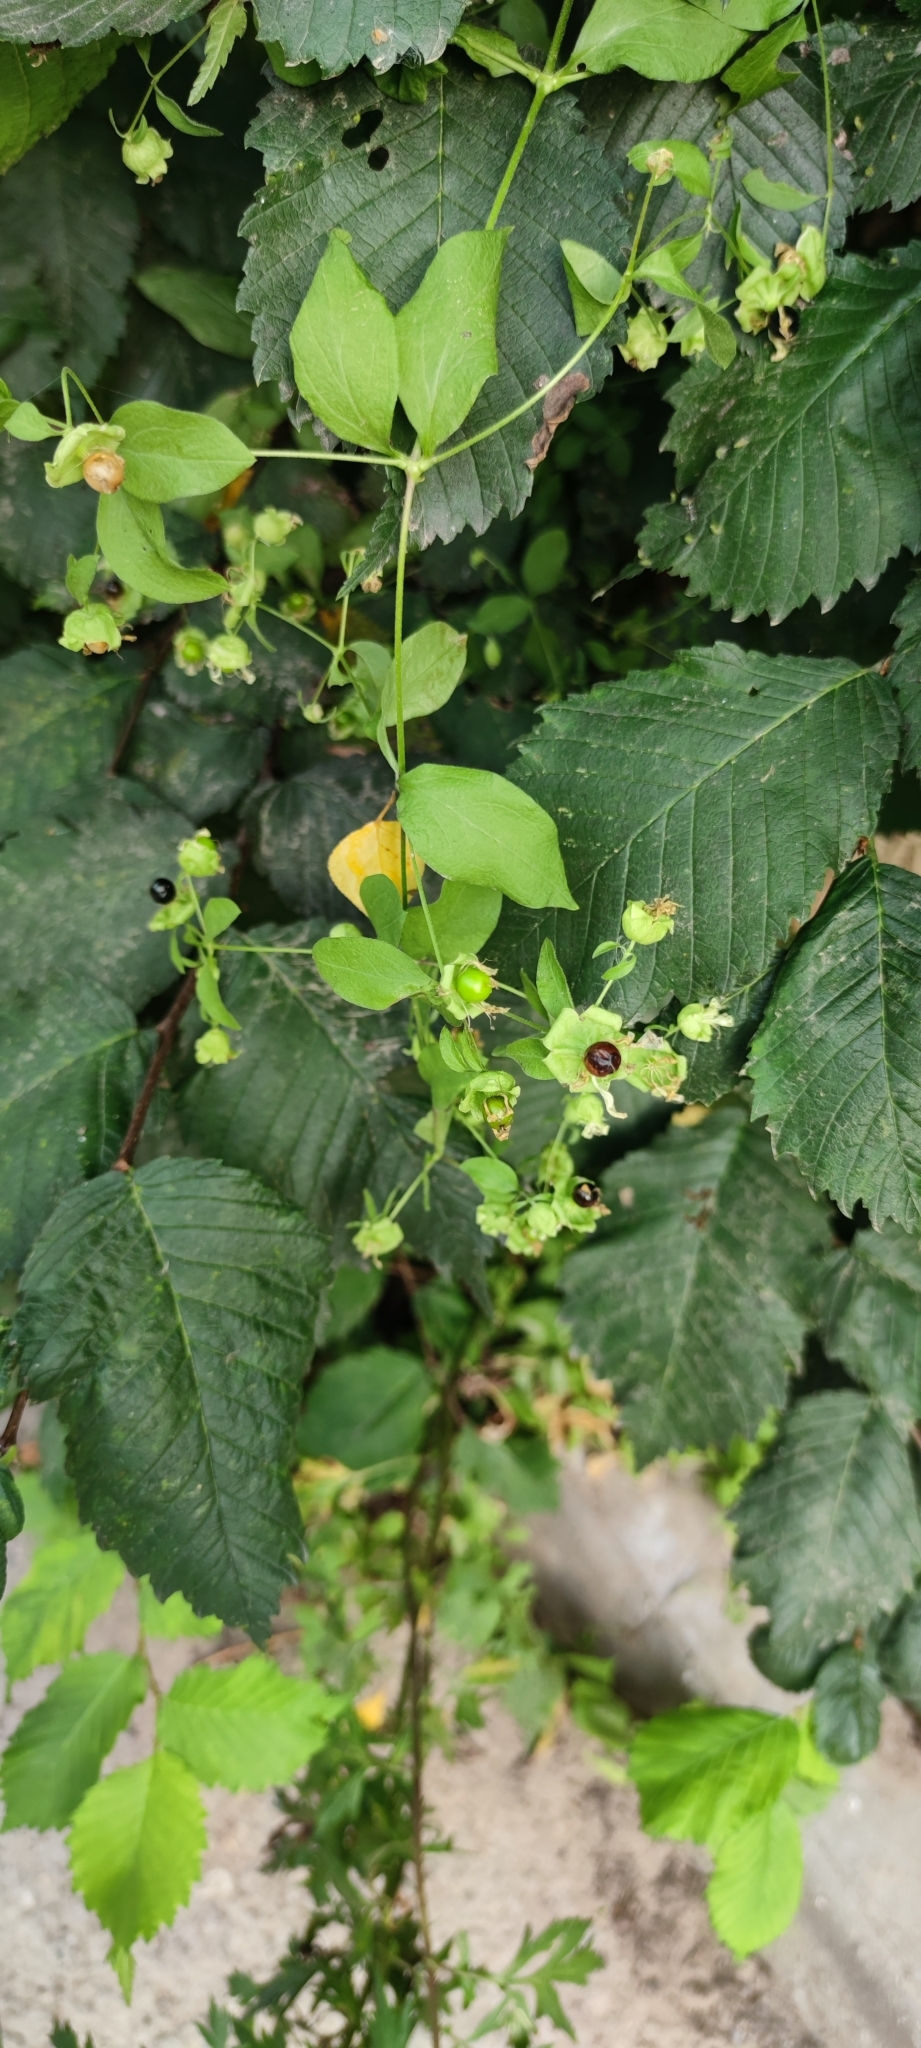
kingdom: Plantae
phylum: Tracheophyta
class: Magnoliopsida
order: Caryophyllales
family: Caryophyllaceae
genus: Silene
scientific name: Silene baccifera
